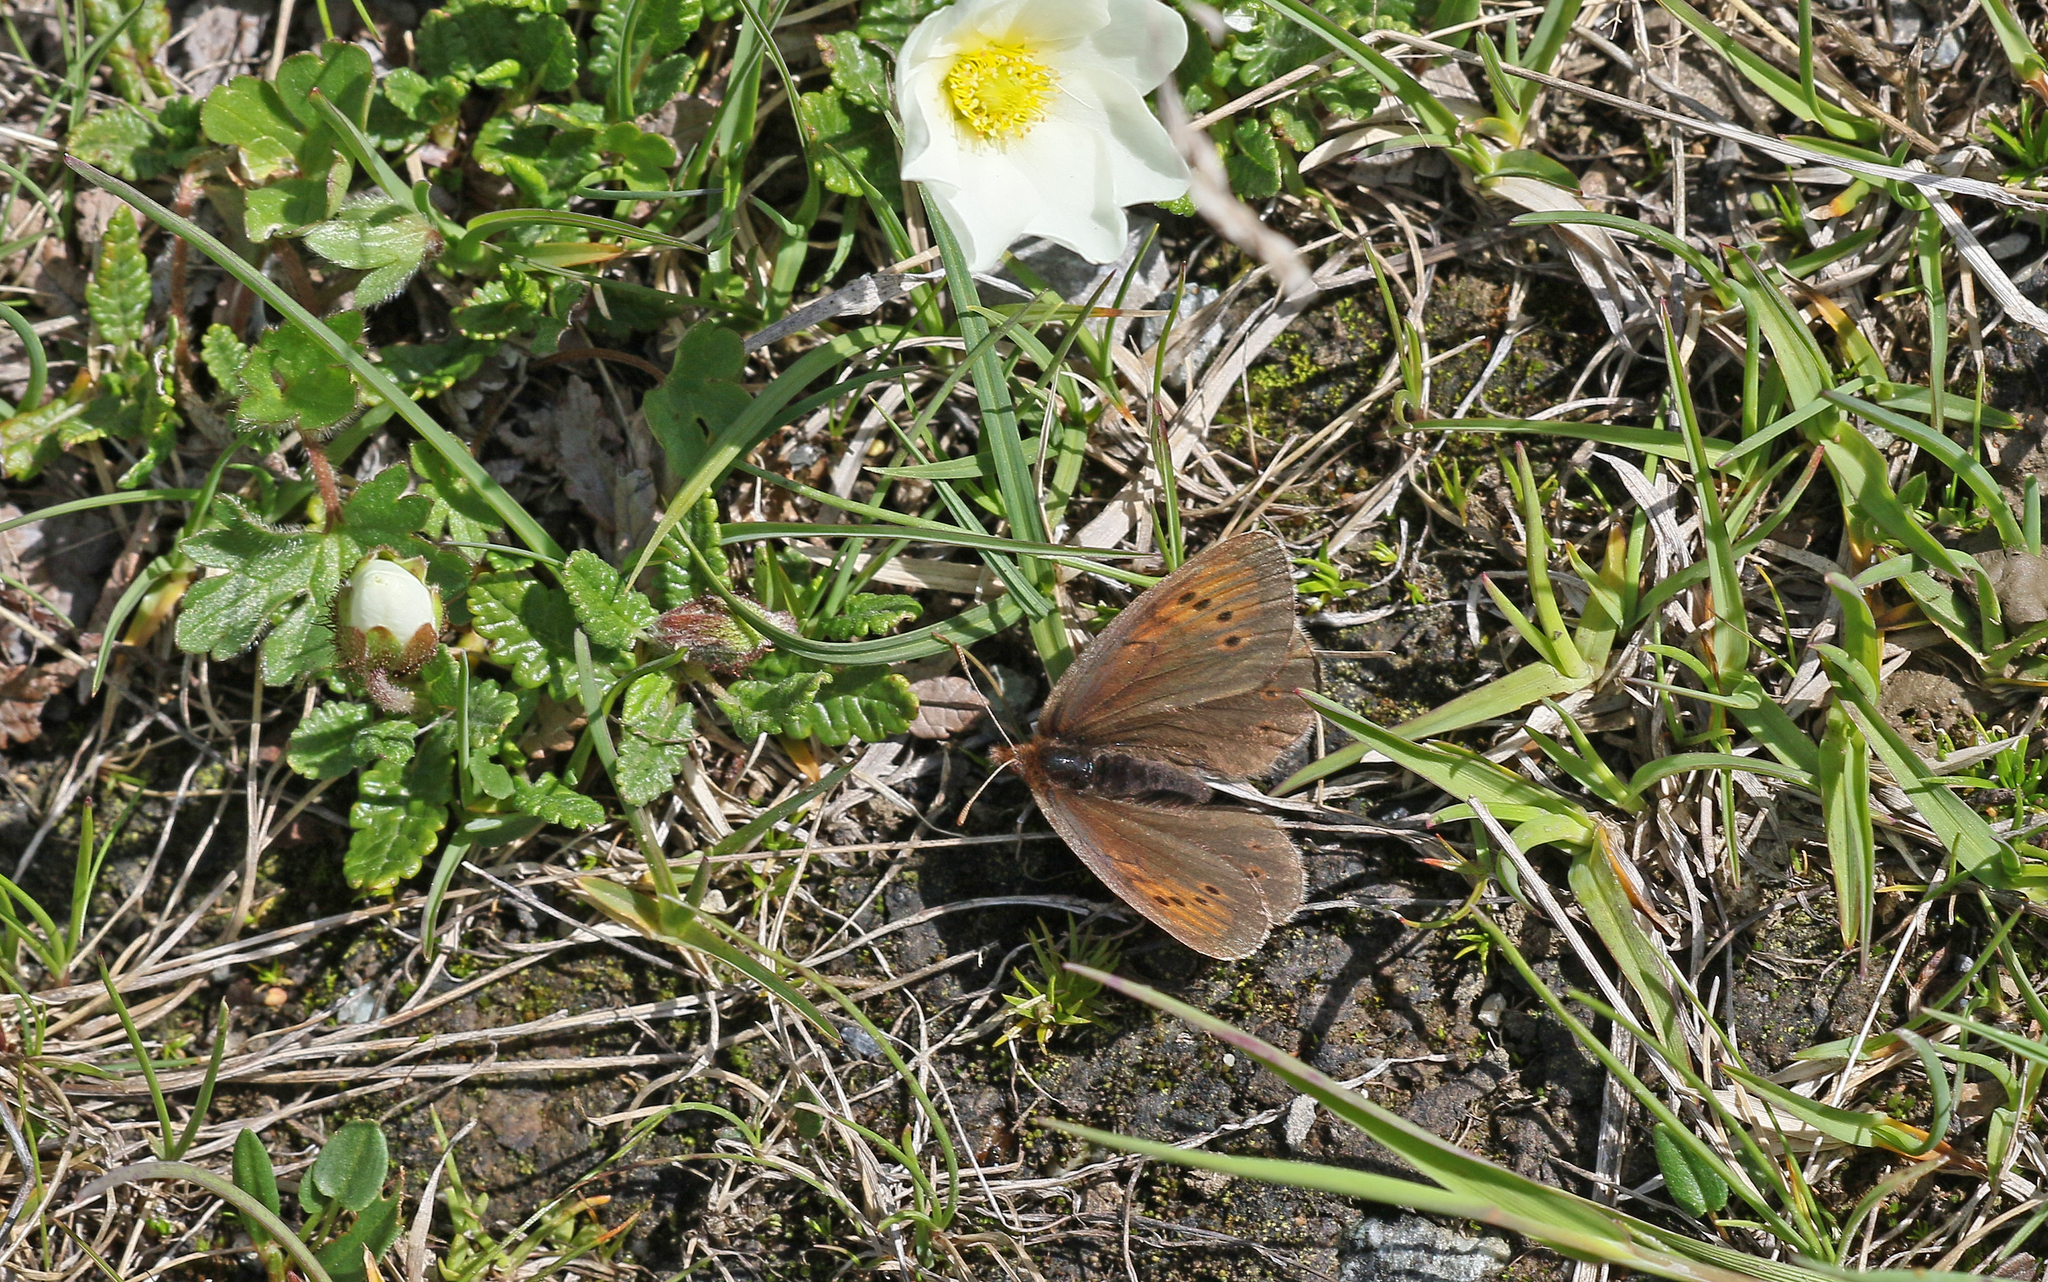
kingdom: Animalia
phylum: Arthropoda
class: Insecta
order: Lepidoptera
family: Nymphalidae
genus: Erebia
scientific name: Erebia pandrose
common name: Dewy ringlet
